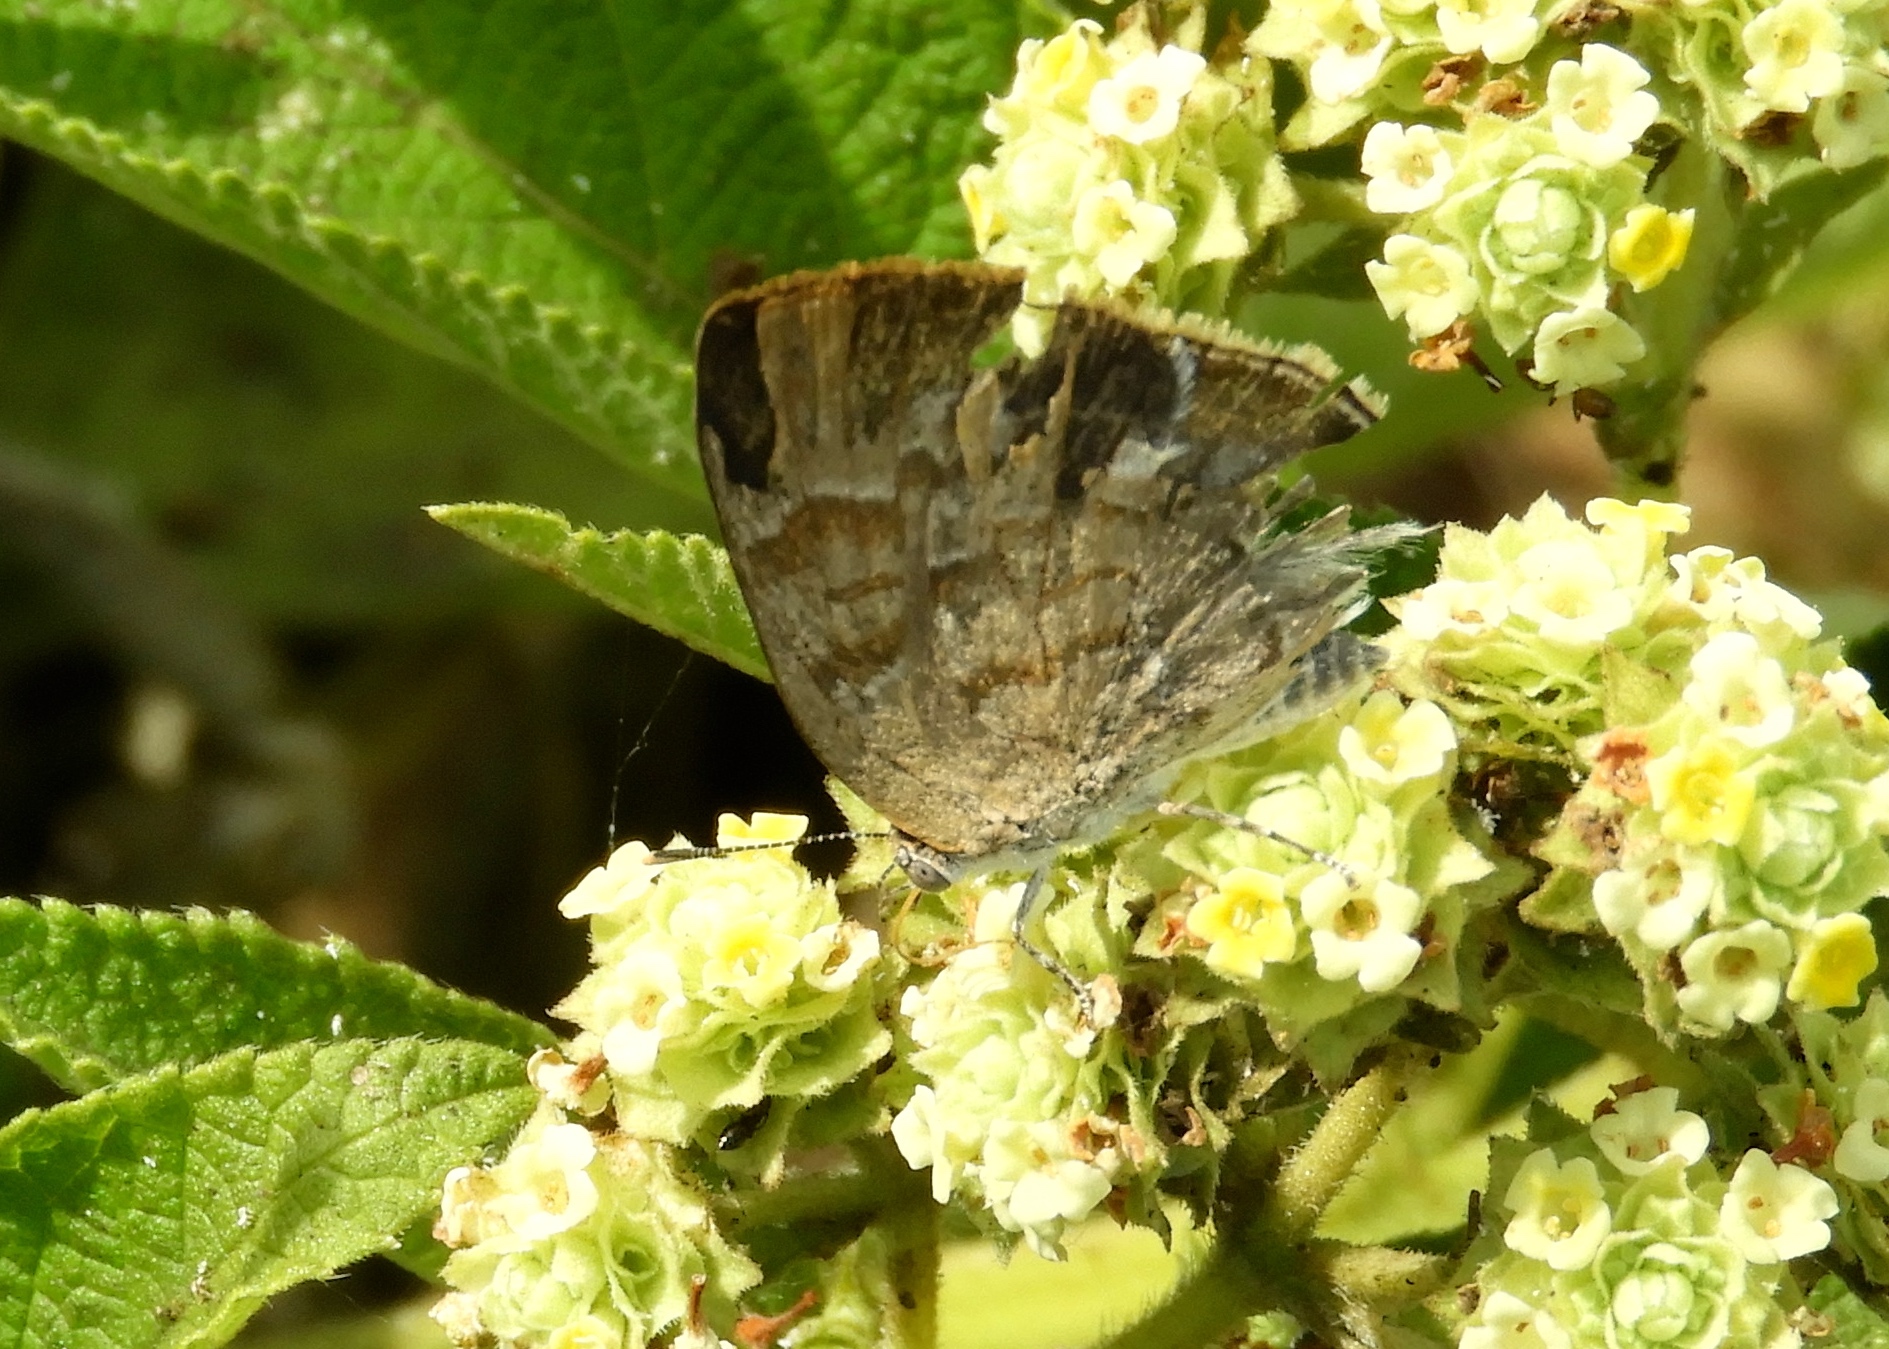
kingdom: Animalia
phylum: Arthropoda
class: Insecta
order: Lepidoptera
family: Lycaenidae
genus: Rekoa
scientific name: Rekoa palegon
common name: Gold-bordered hairstreak
